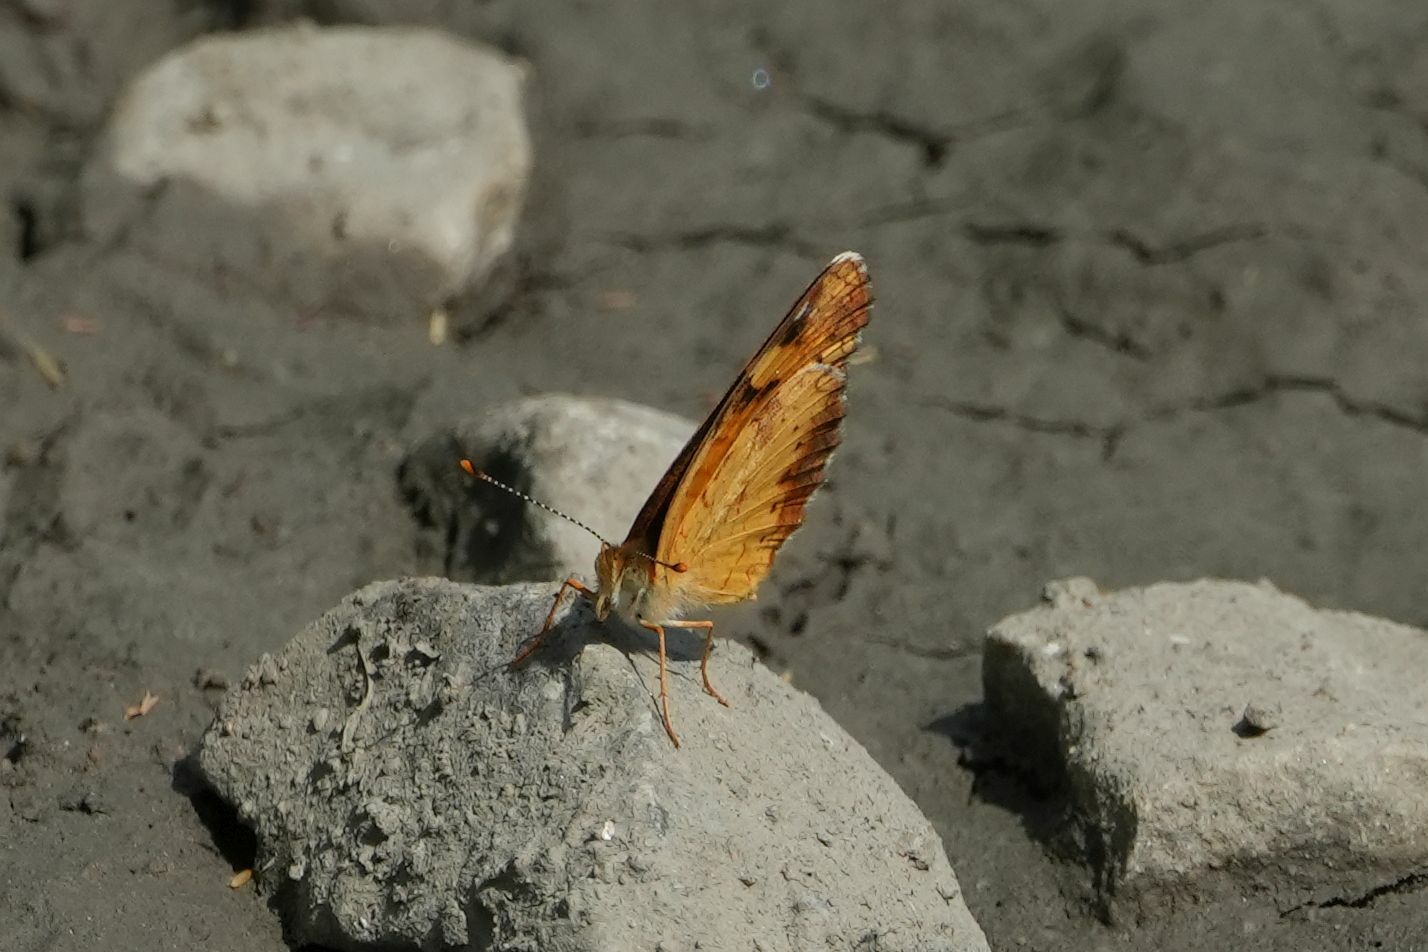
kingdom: Animalia
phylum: Arthropoda
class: Insecta
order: Lepidoptera
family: Nymphalidae
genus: Phyciodes
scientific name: Phyciodes tharos
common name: Pearl crescent
